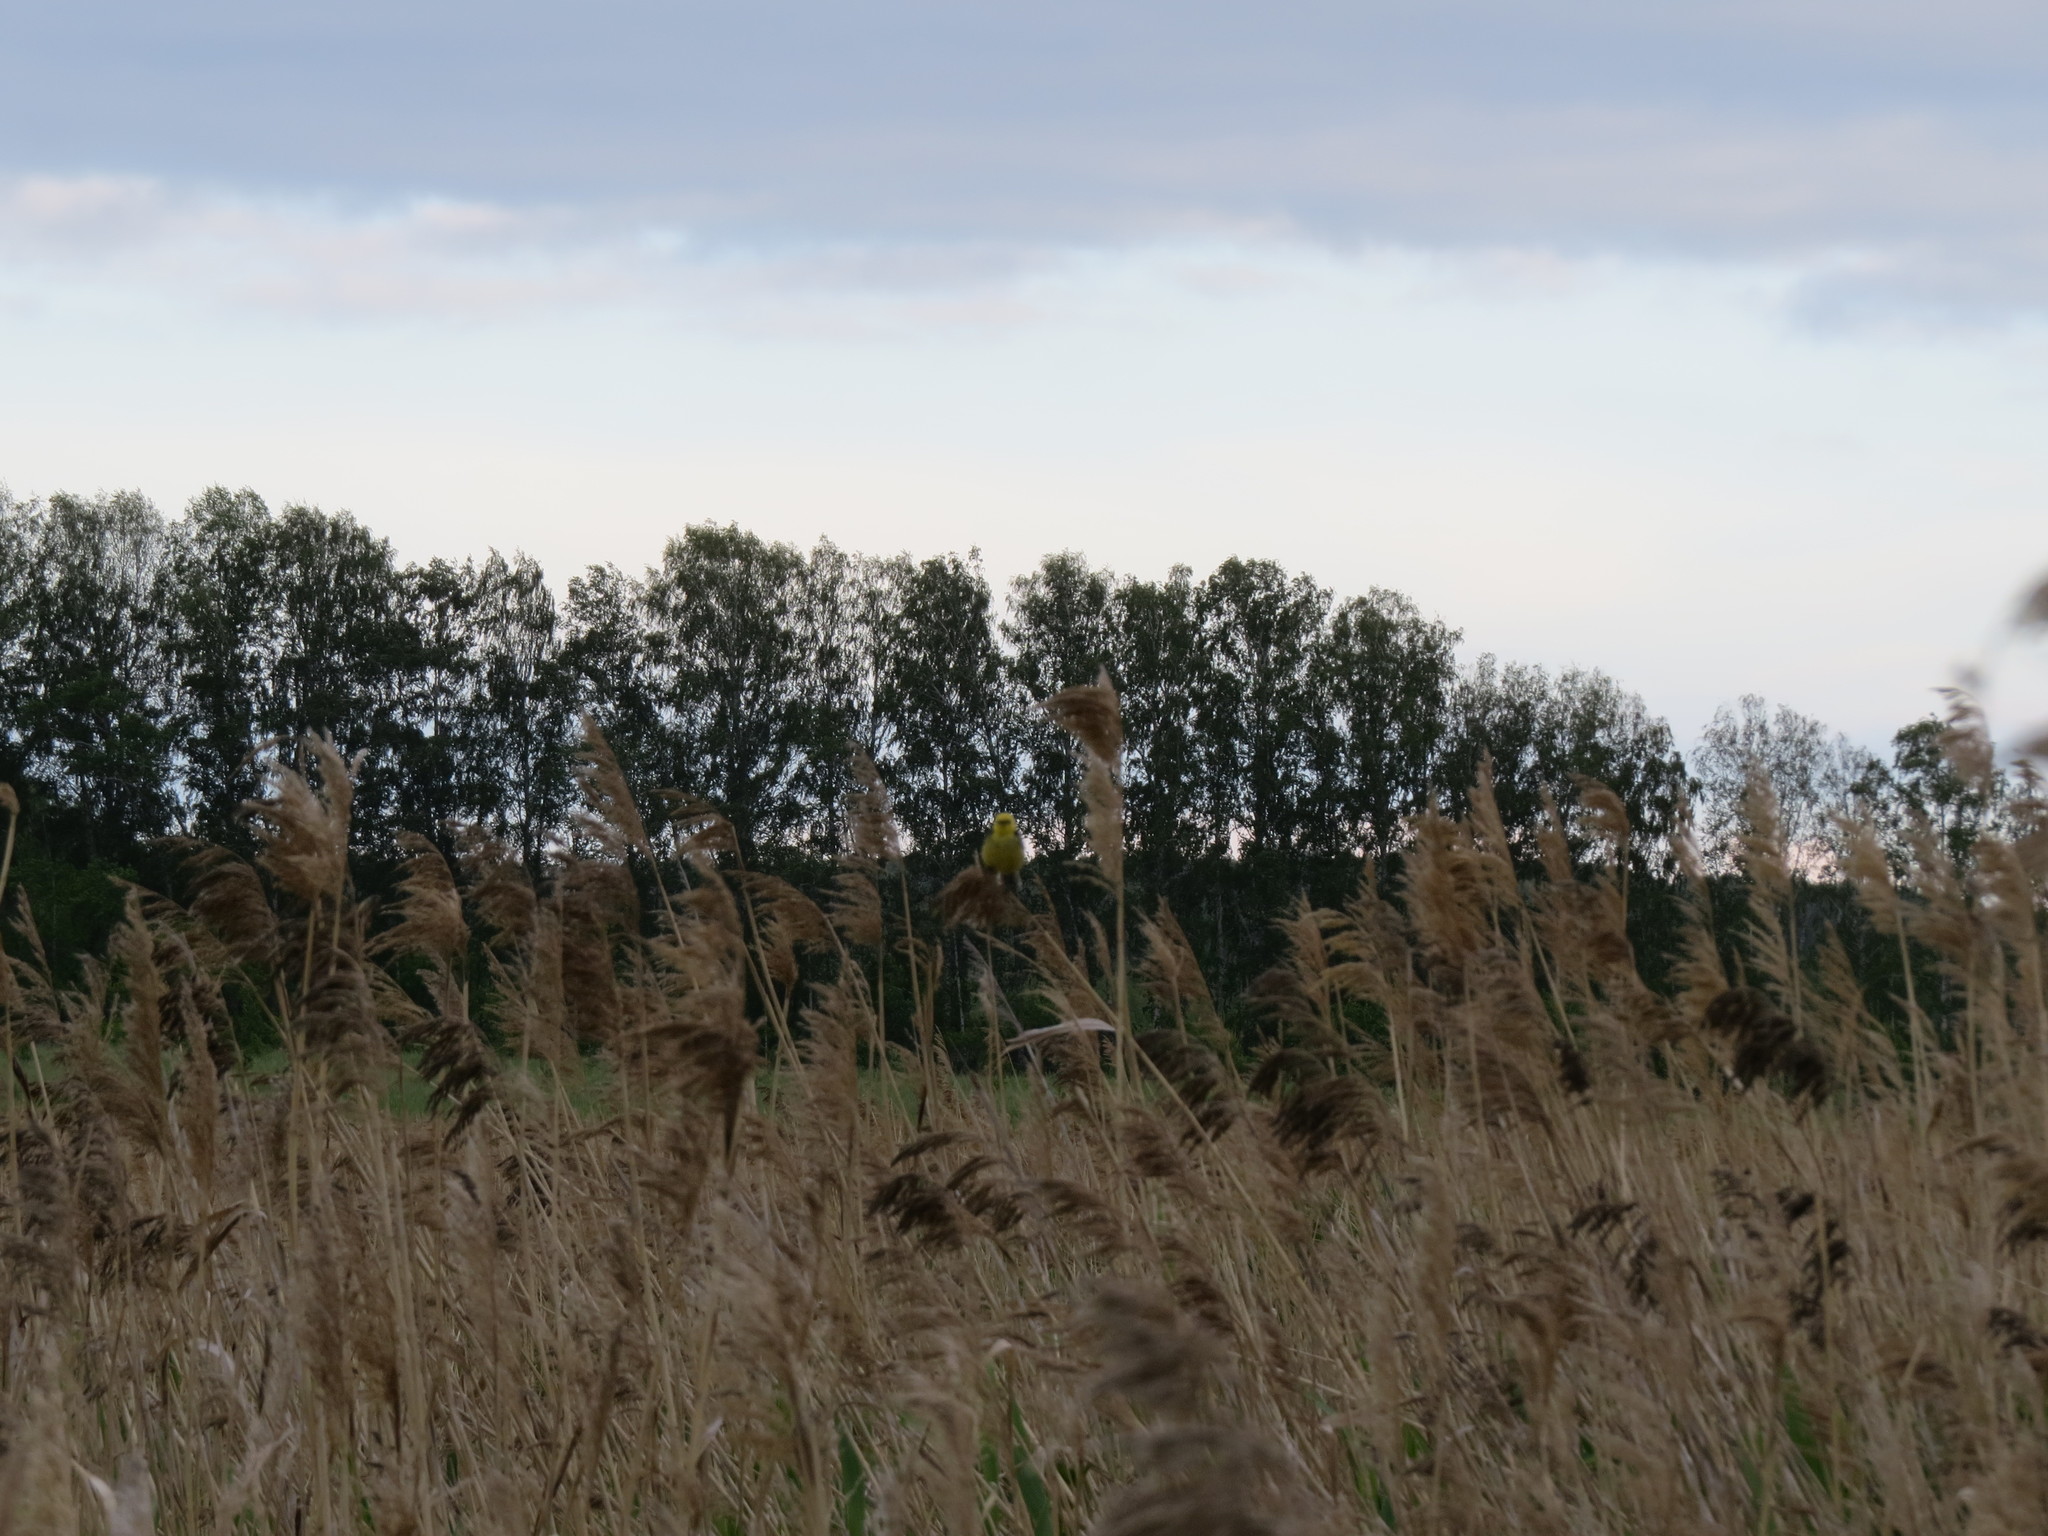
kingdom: Animalia
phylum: Chordata
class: Aves
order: Passeriformes
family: Motacillidae
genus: Motacilla
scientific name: Motacilla citreola
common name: Citrine wagtail
